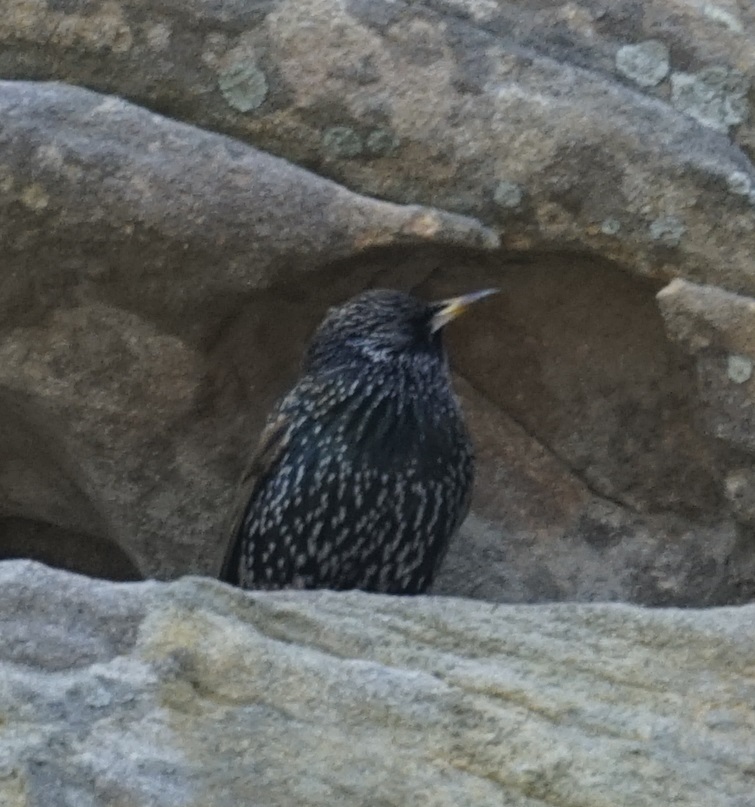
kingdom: Animalia
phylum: Chordata
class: Aves
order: Passeriformes
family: Sturnidae
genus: Sturnus
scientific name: Sturnus vulgaris
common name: Common starling
